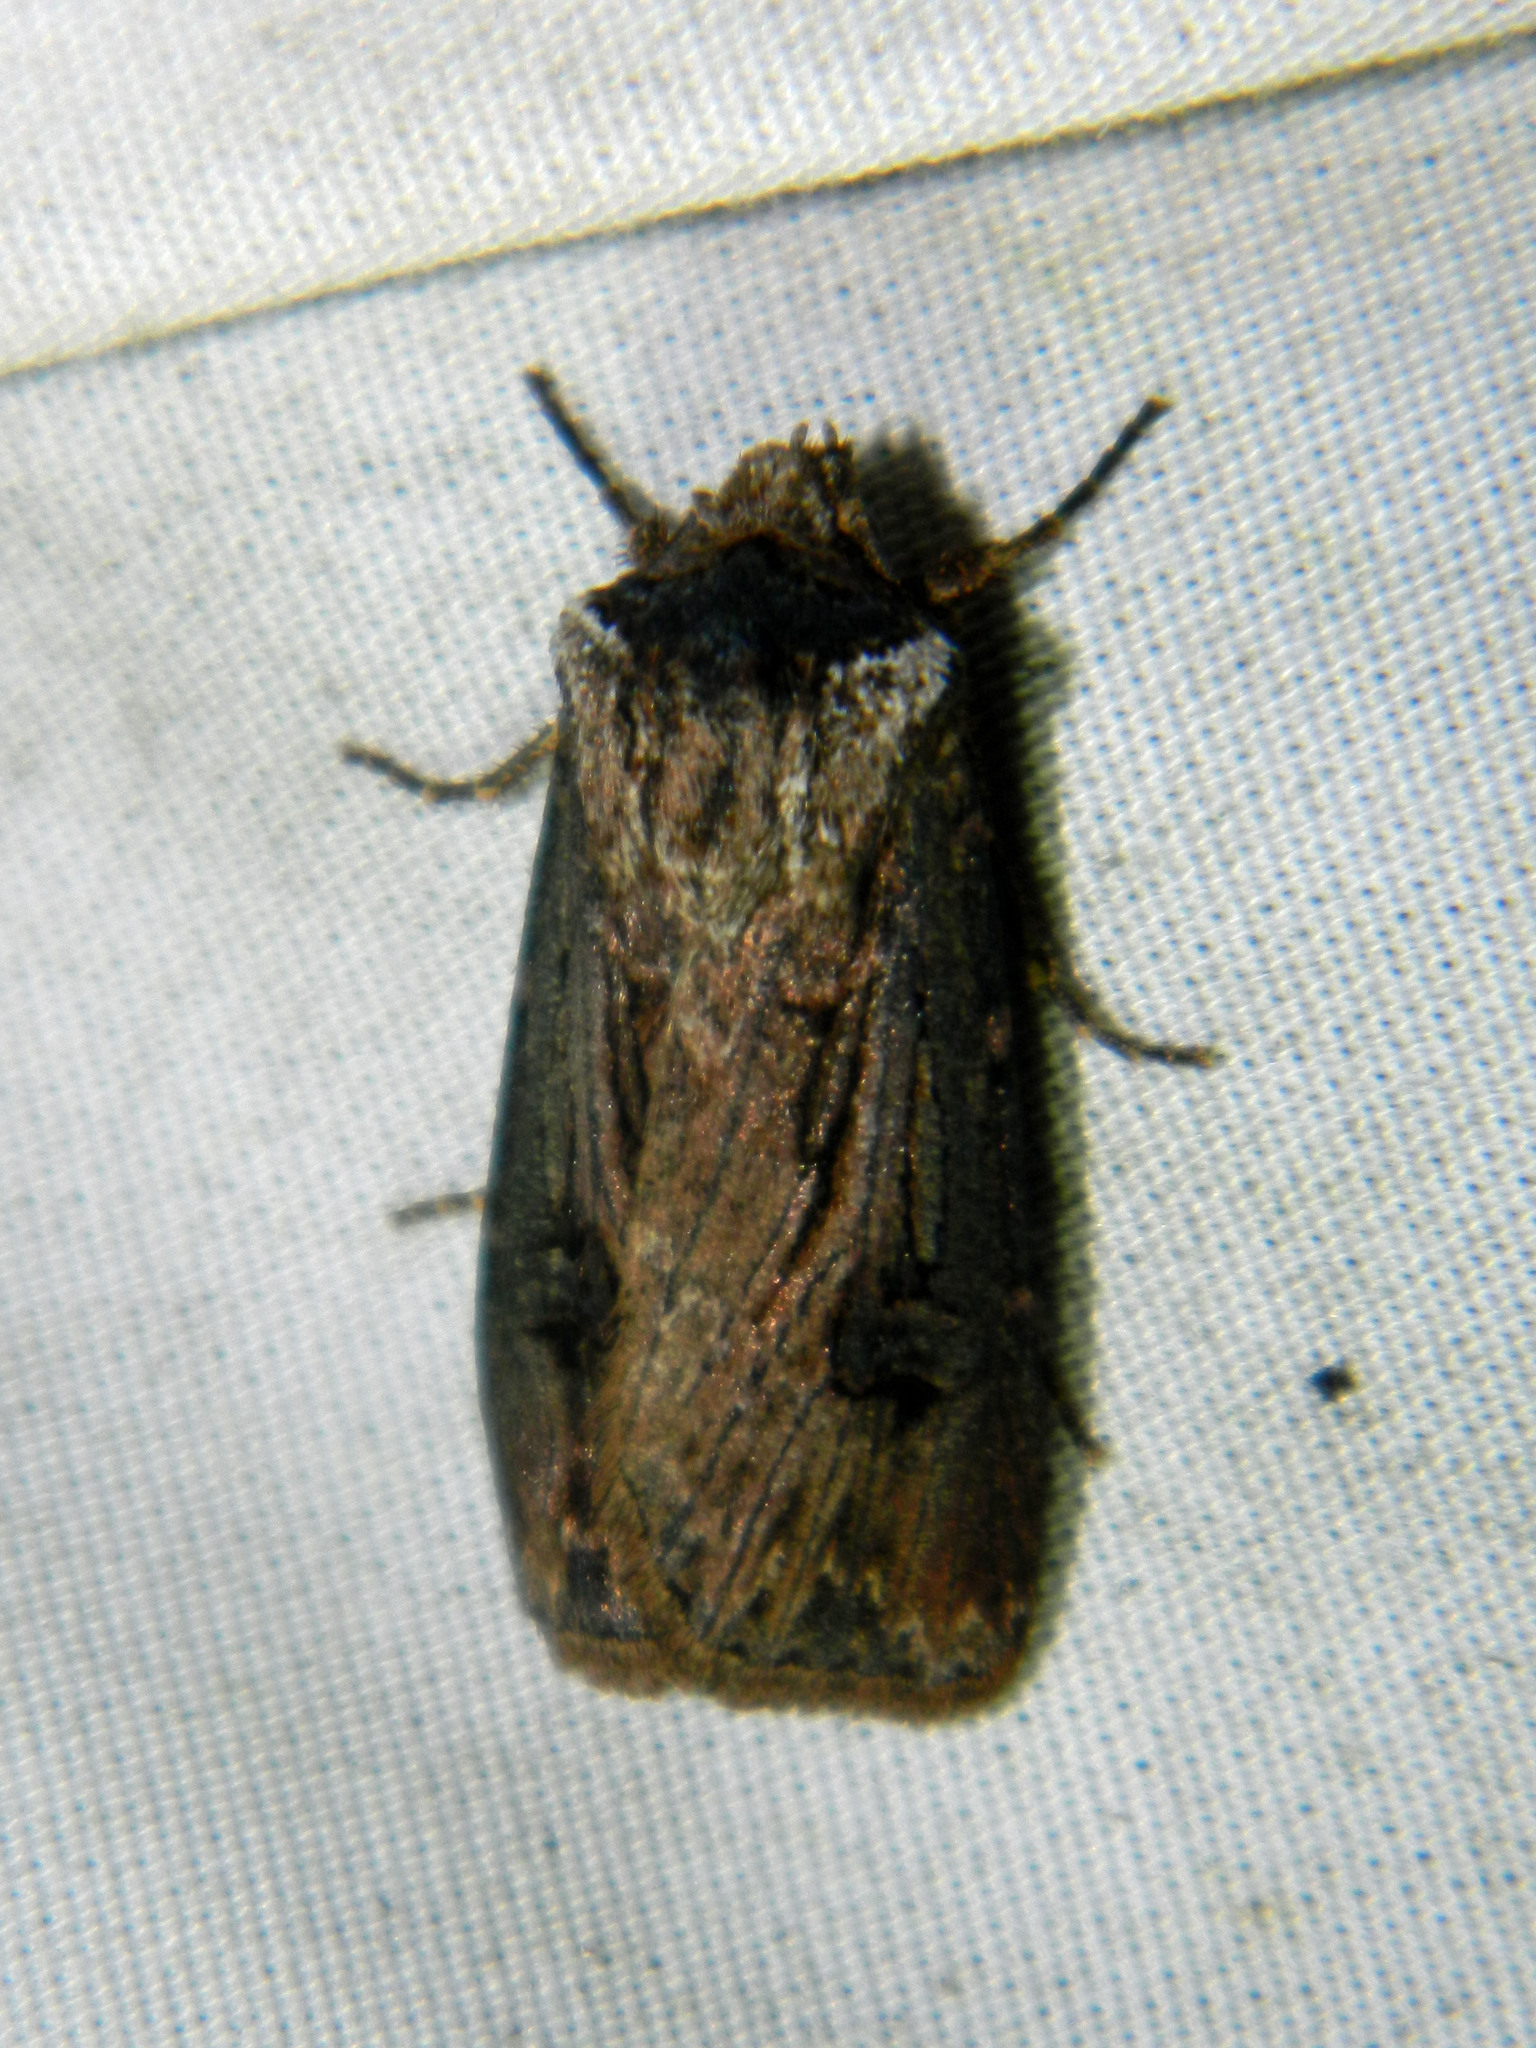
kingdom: Animalia
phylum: Arthropoda
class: Insecta
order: Lepidoptera
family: Noctuidae
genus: Agrotis
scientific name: Agrotis venerabilis
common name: Venerable dart
